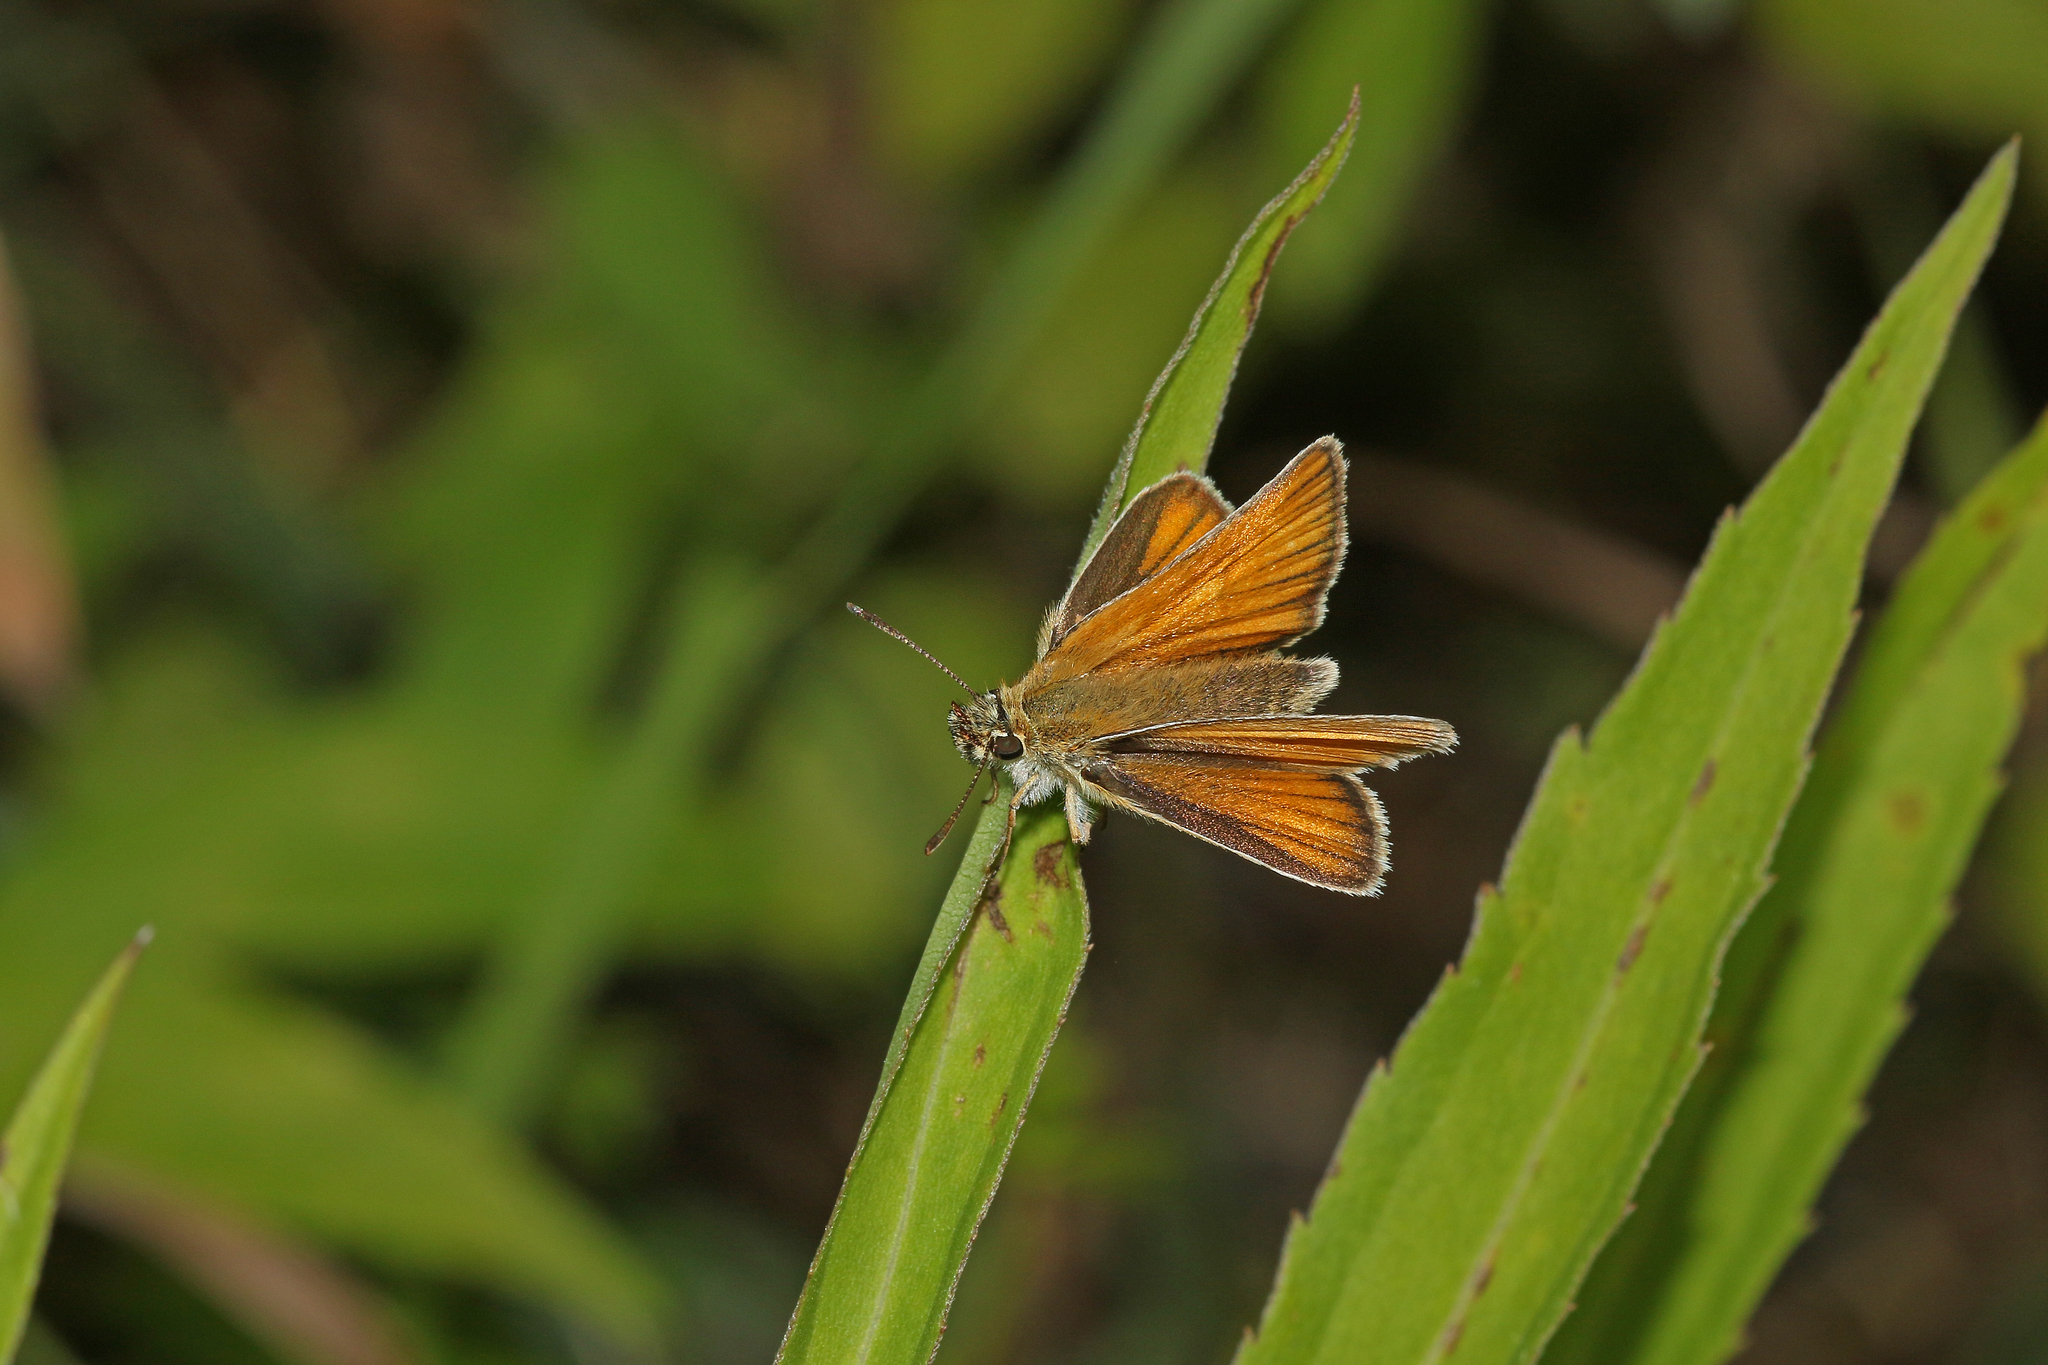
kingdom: Animalia
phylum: Arthropoda
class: Insecta
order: Lepidoptera
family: Hesperiidae
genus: Thymelicus
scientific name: Thymelicus lineola
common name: Essex skipper
